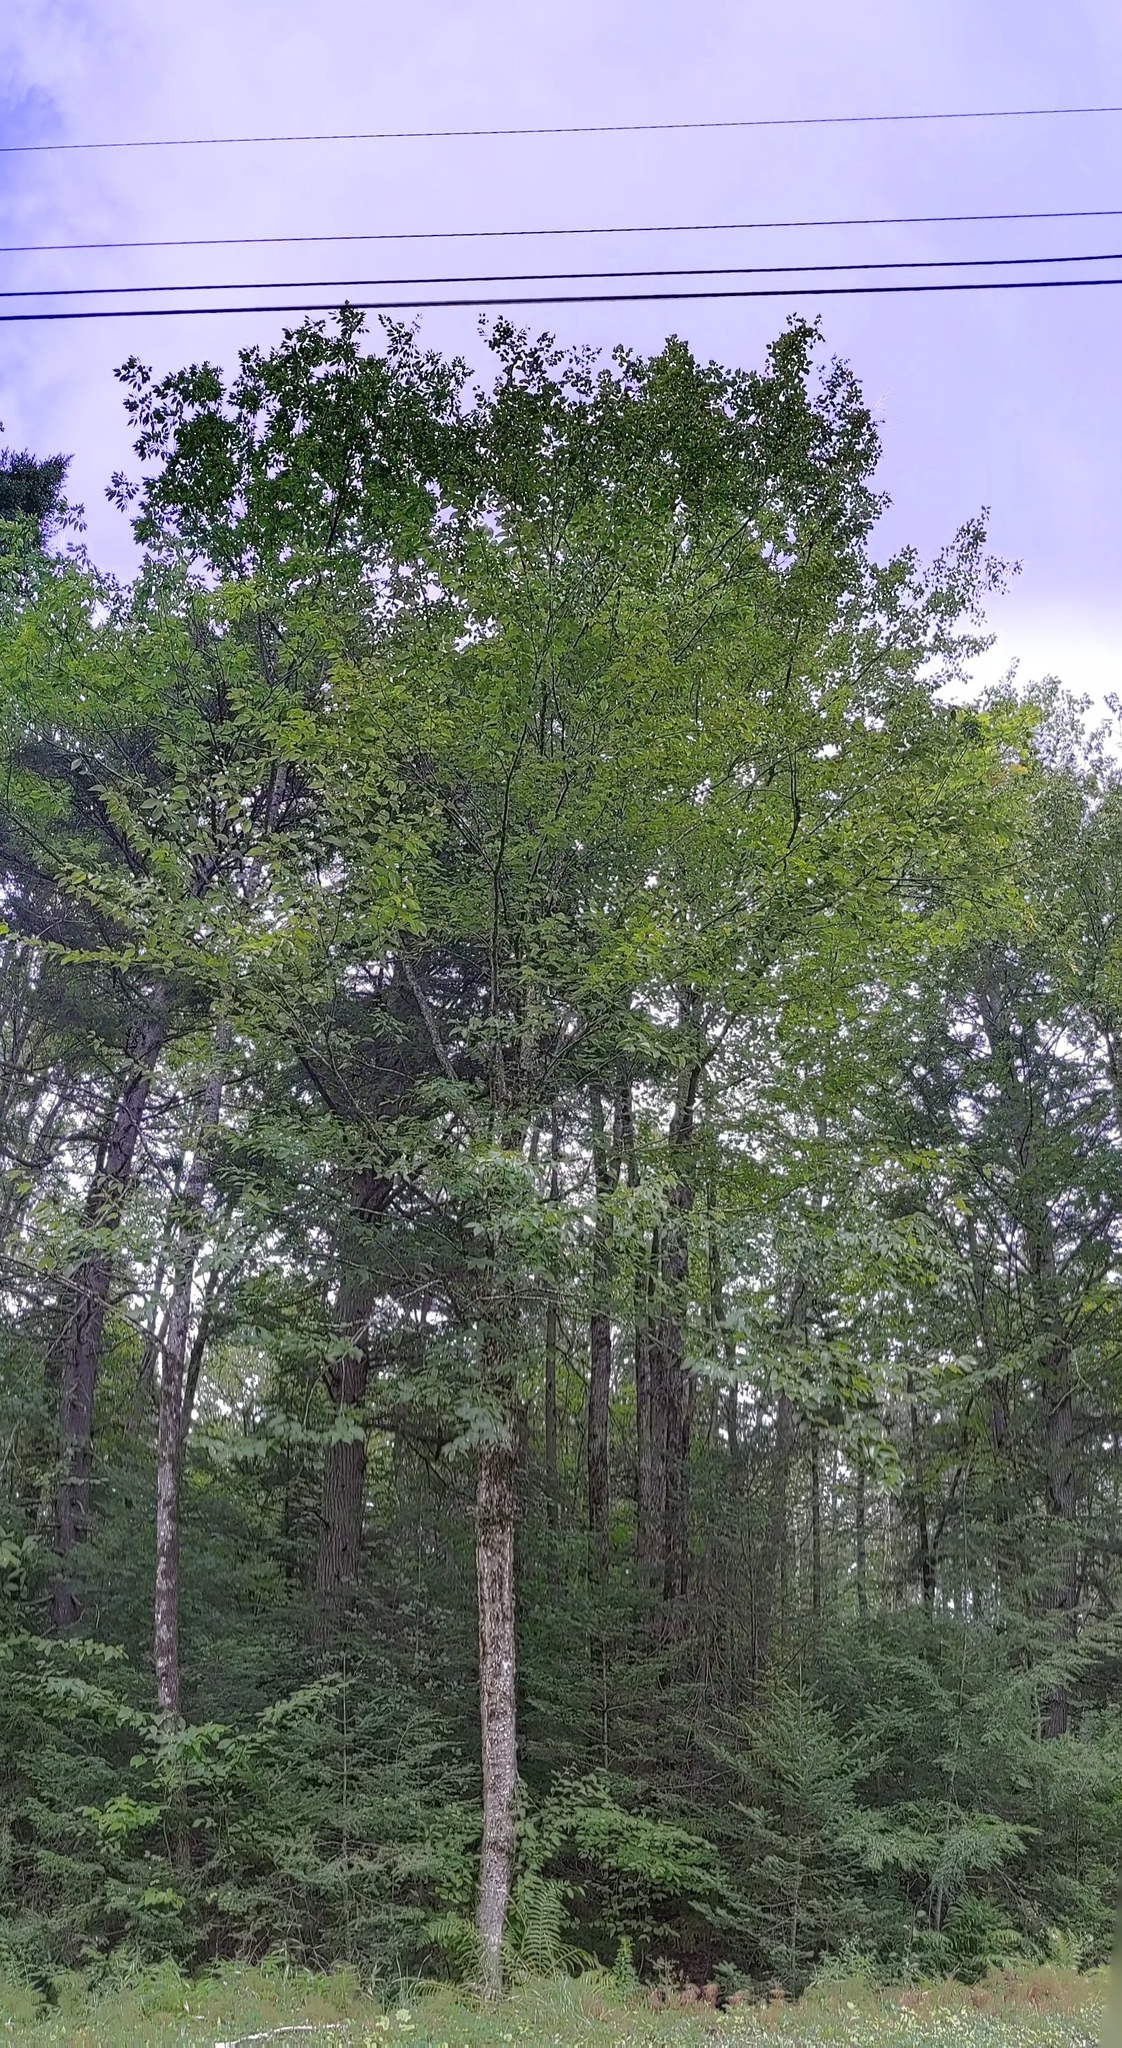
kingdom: Plantae
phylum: Tracheophyta
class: Magnoliopsida
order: Fagales
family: Betulaceae
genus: Betula
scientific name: Betula alleghaniensis
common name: Yellow birch
